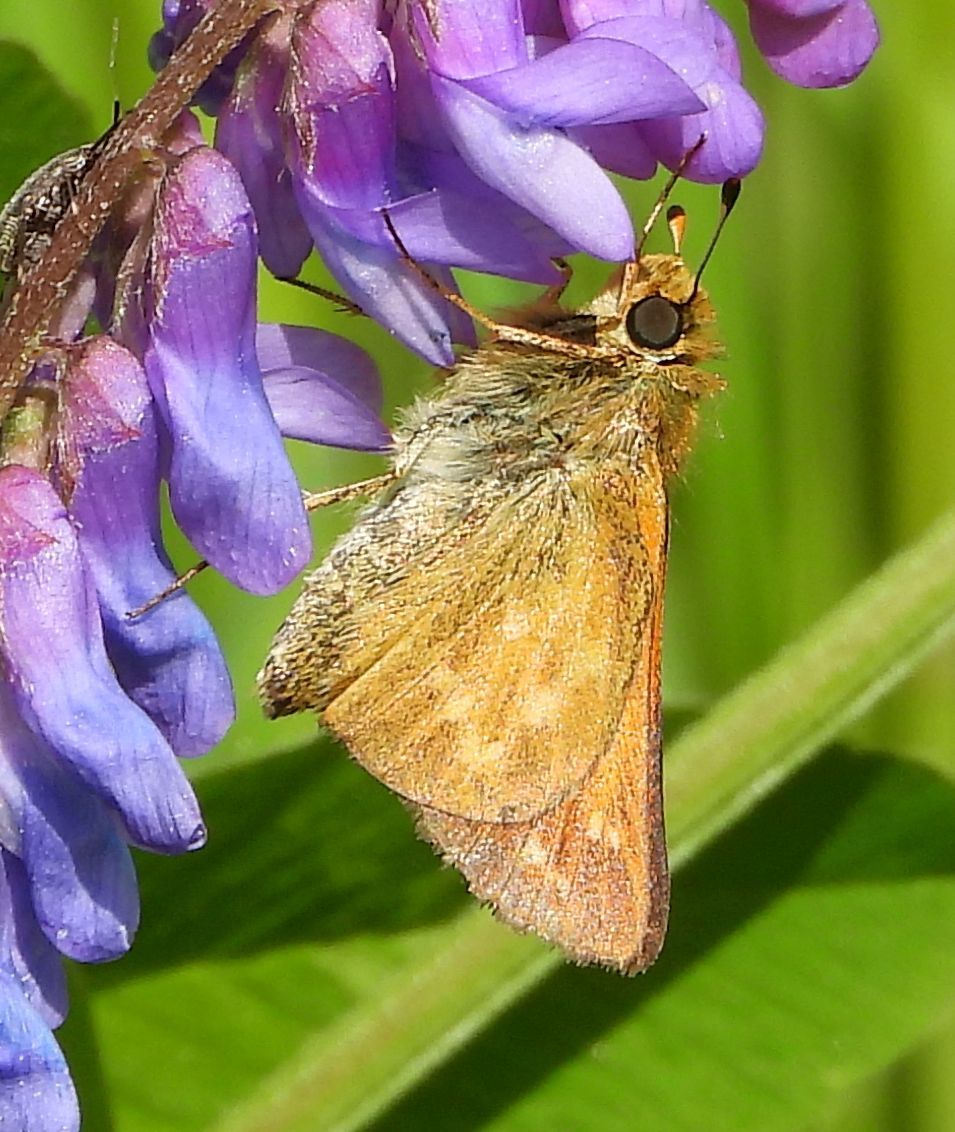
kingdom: Animalia
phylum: Arthropoda
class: Insecta
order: Lepidoptera
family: Hesperiidae
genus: Hesperia
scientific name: Hesperia sassacus
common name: Indian skipper
